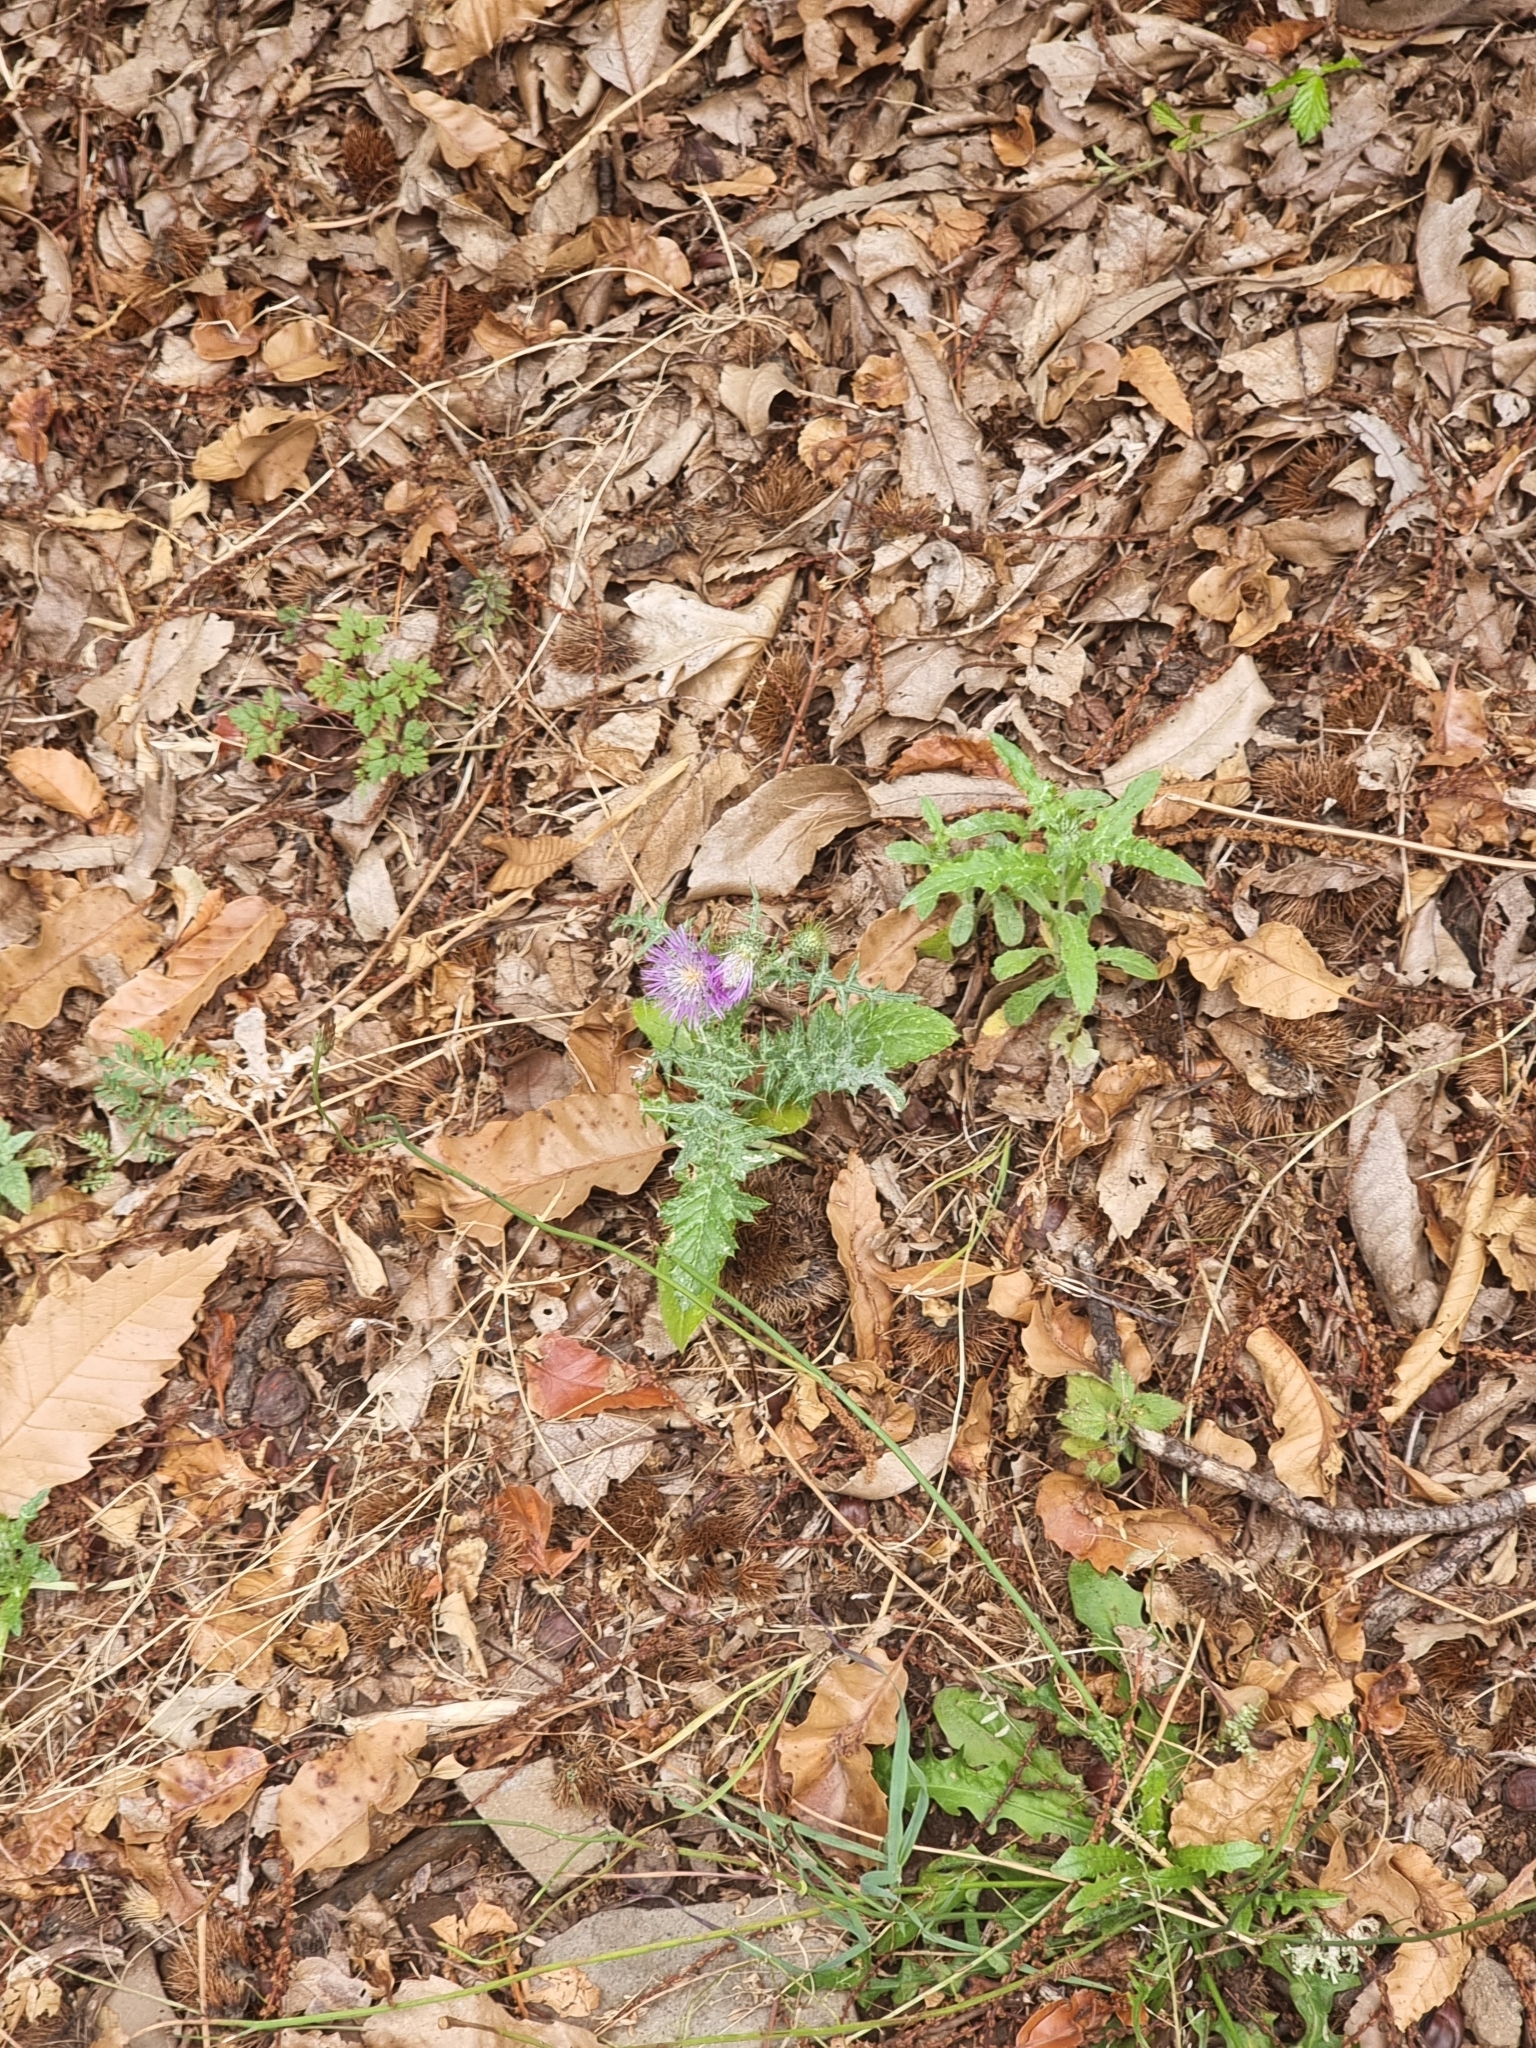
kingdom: Plantae
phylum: Tracheophyta
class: Magnoliopsida
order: Asterales
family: Asteraceae
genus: Galactites
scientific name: Galactites tomentosa
